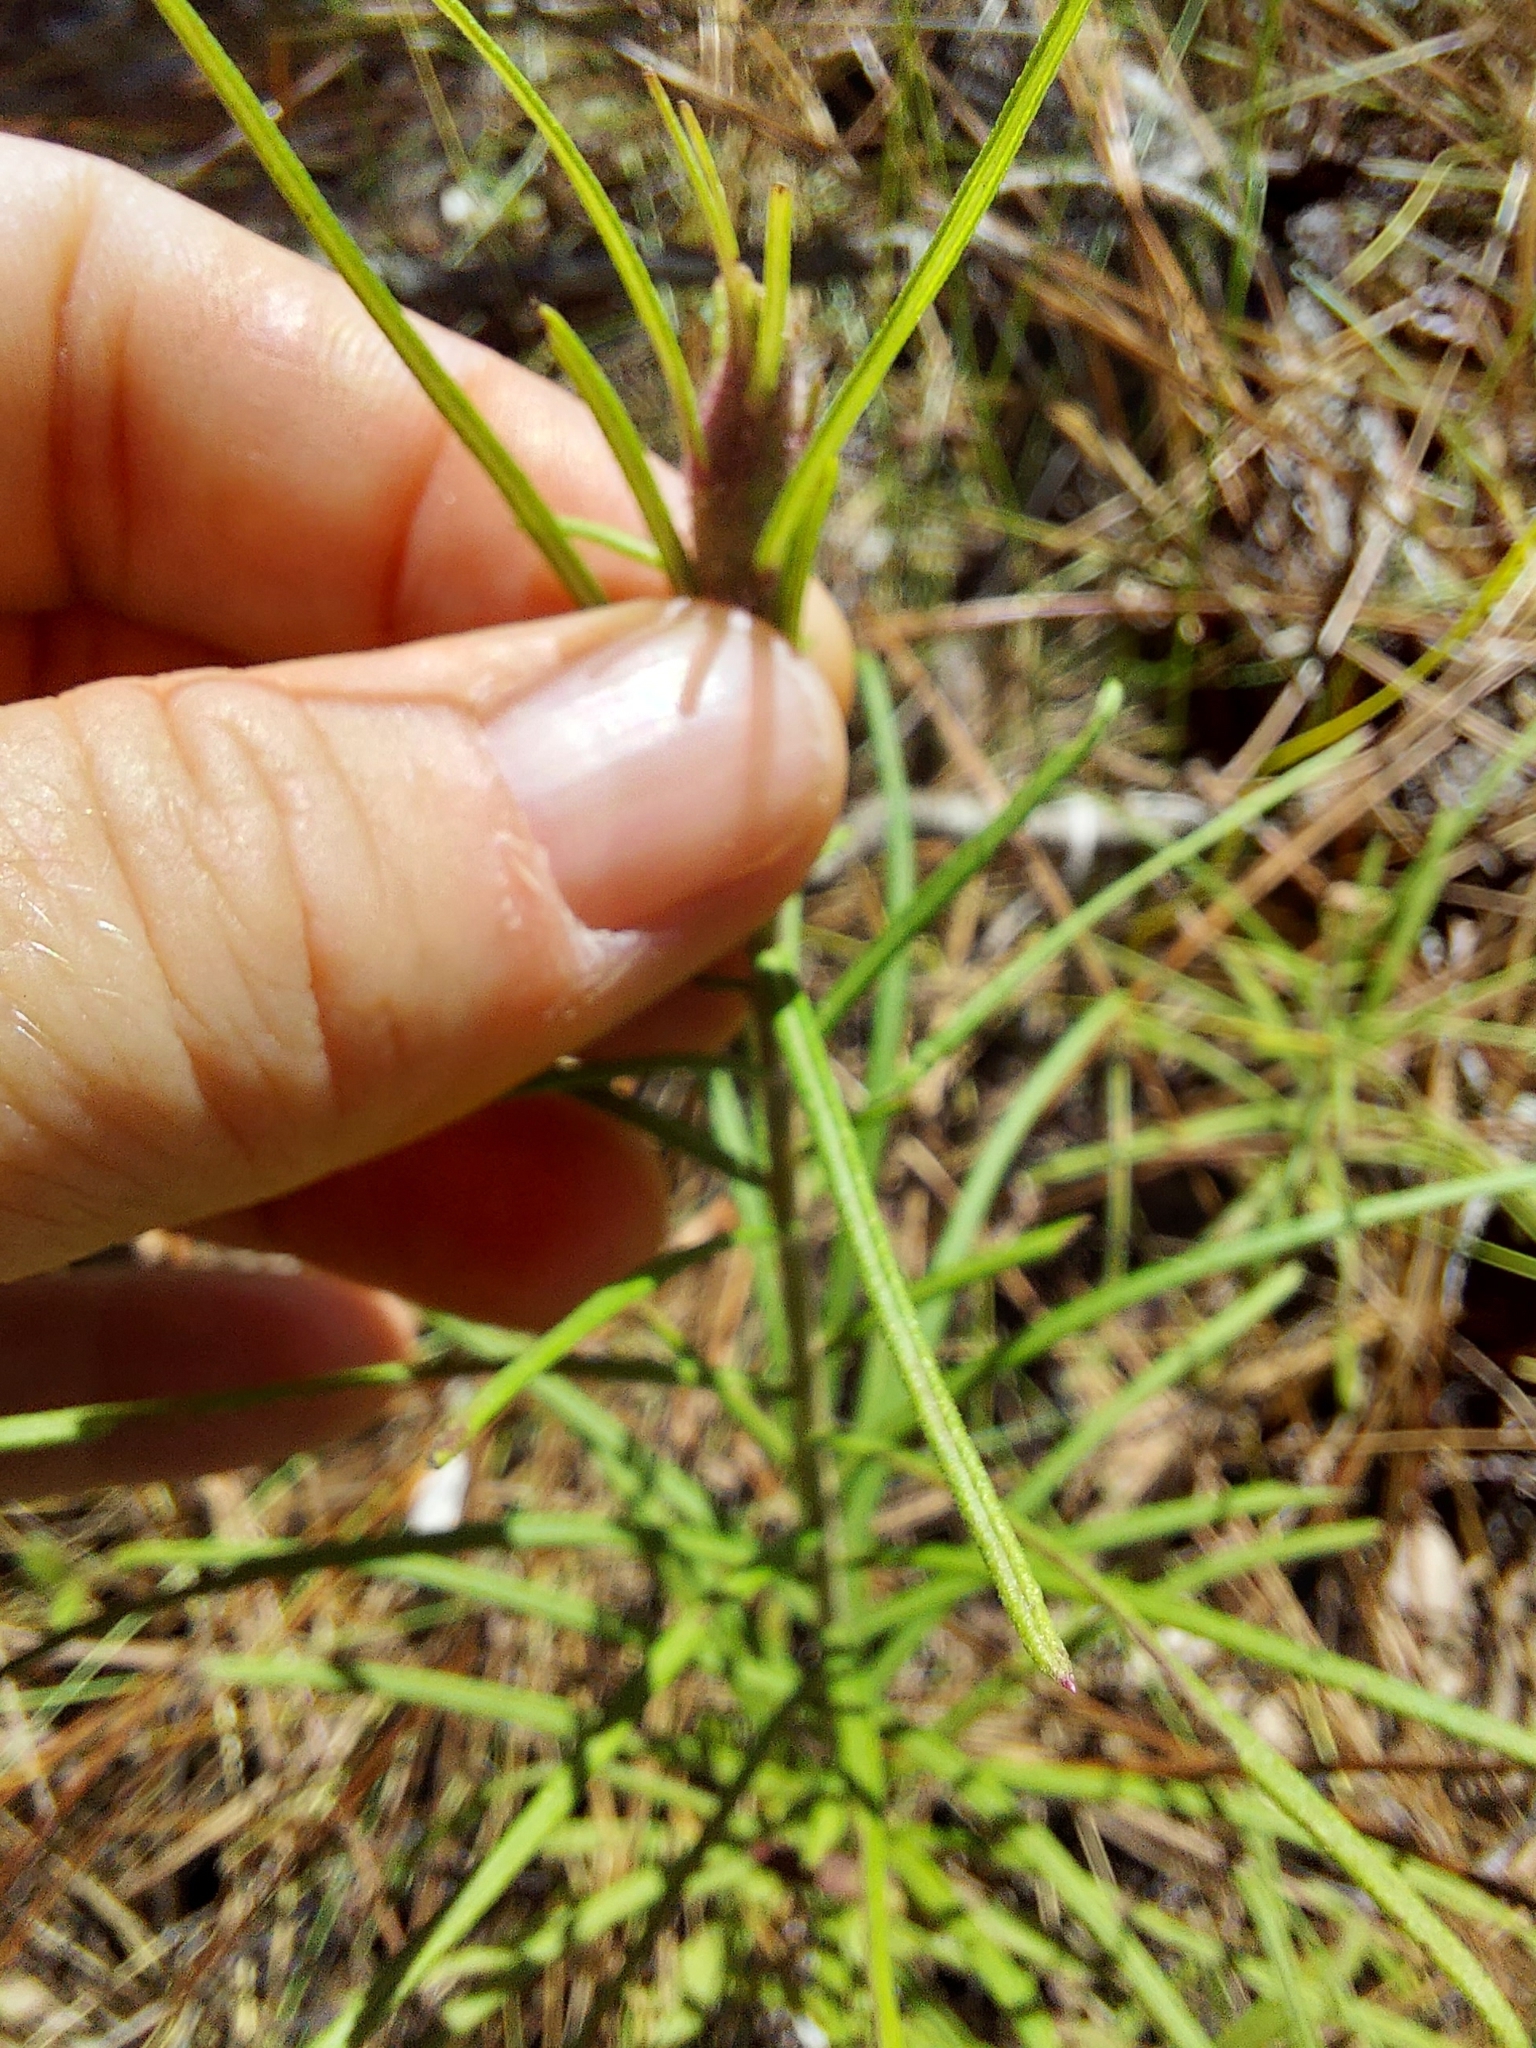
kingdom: Plantae
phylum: Tracheophyta
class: Magnoliopsida
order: Asterales
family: Asteraceae
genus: Vernonia
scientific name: Vernonia angustifolia
